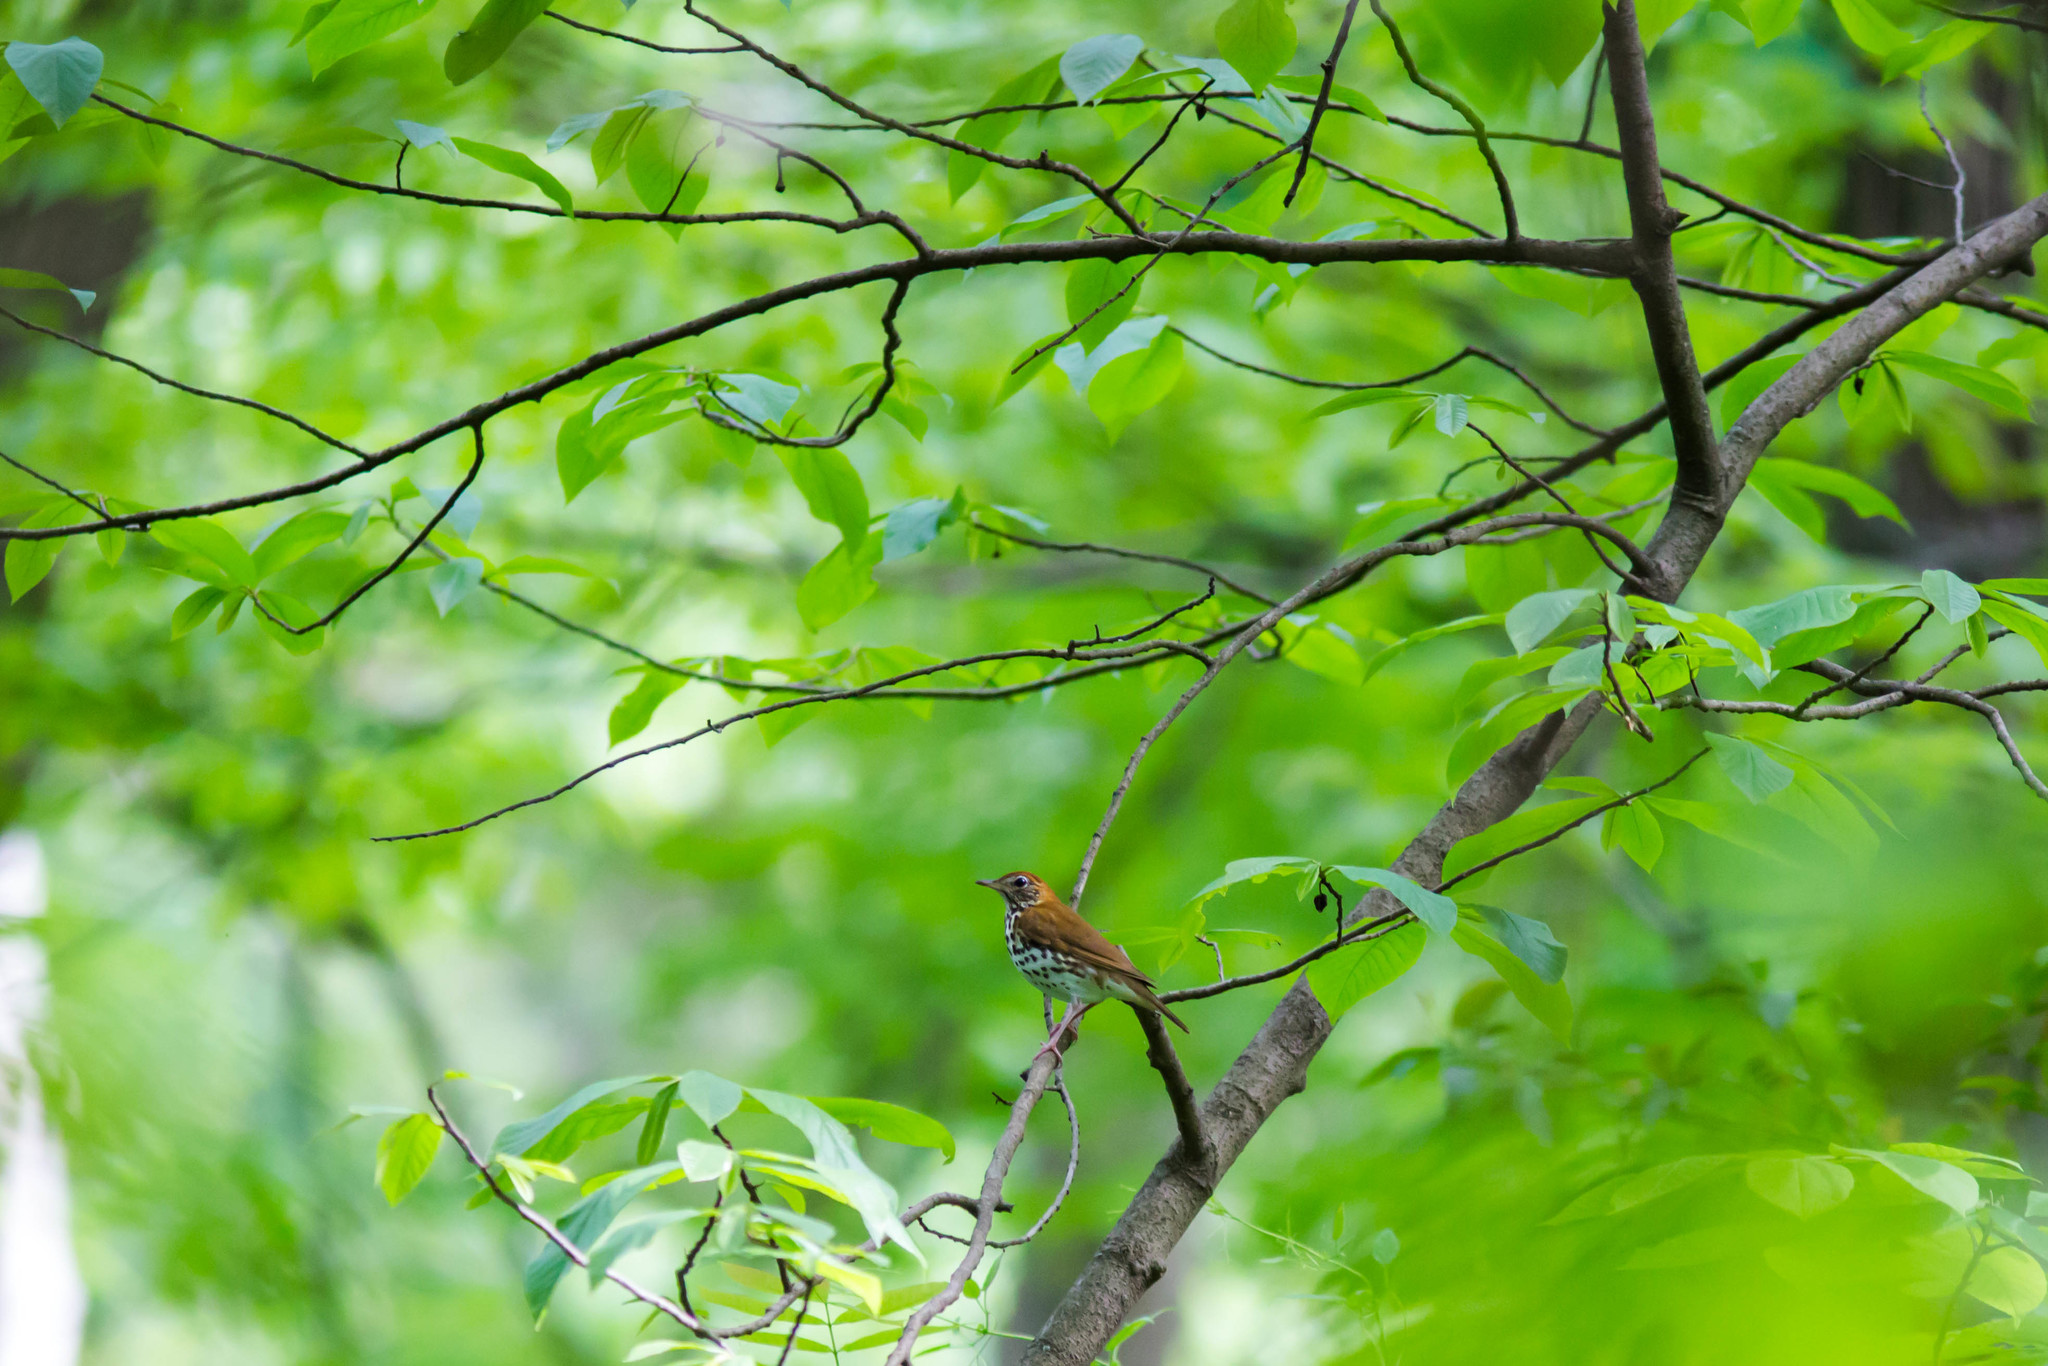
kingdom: Animalia
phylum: Chordata
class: Aves
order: Passeriformes
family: Turdidae
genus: Hylocichla
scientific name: Hylocichla mustelina
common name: Wood thrush
